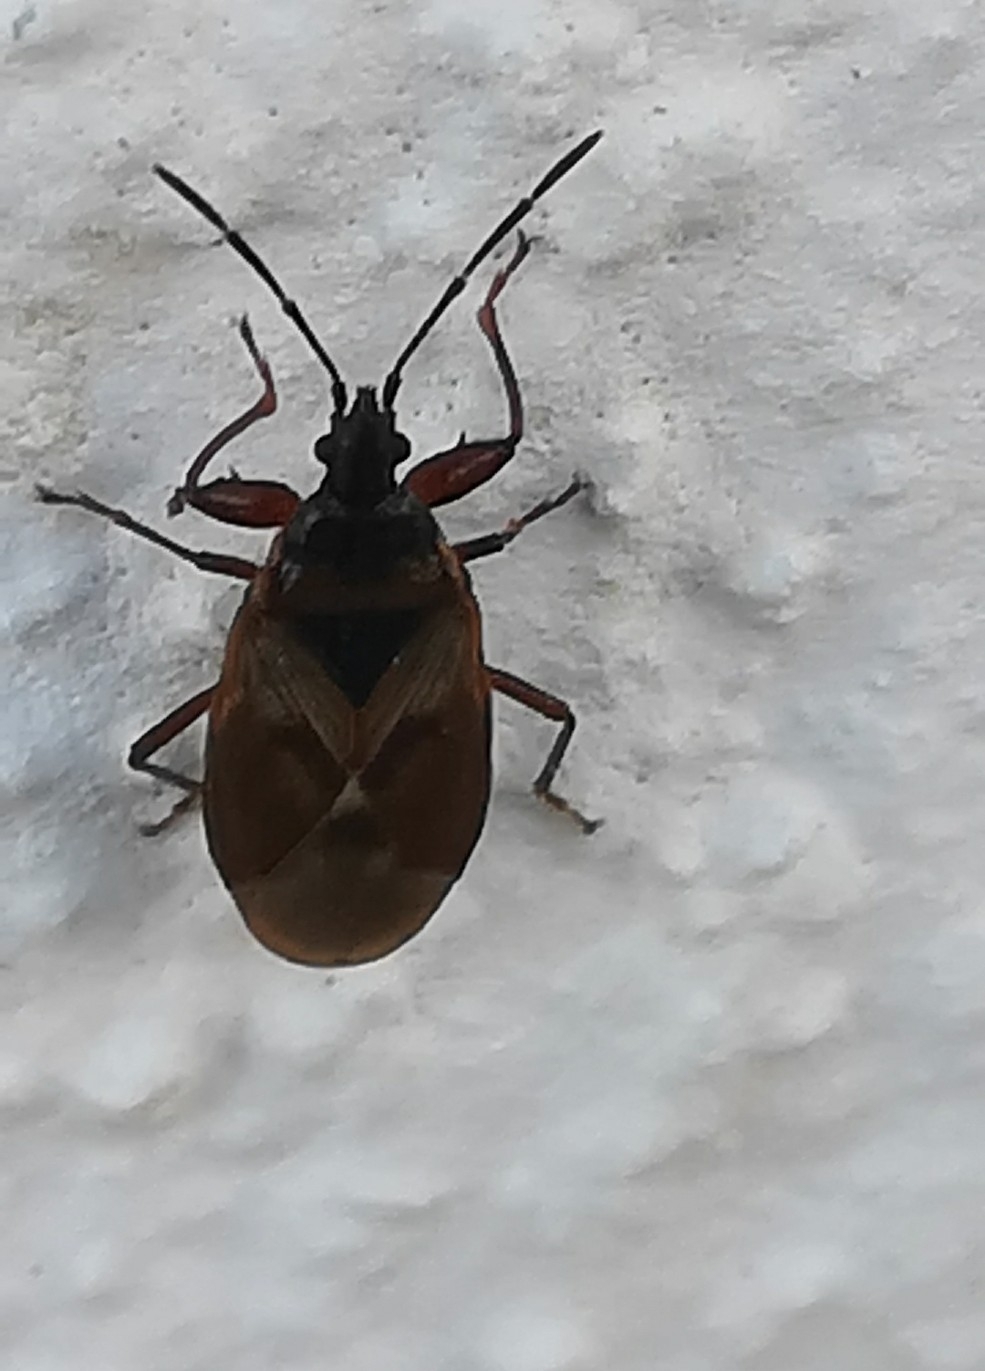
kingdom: Animalia
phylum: Arthropoda
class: Insecta
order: Hemiptera
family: Rhyparochromidae
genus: Gastrodes
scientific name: Gastrodes abietum
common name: Spruce cone bug
